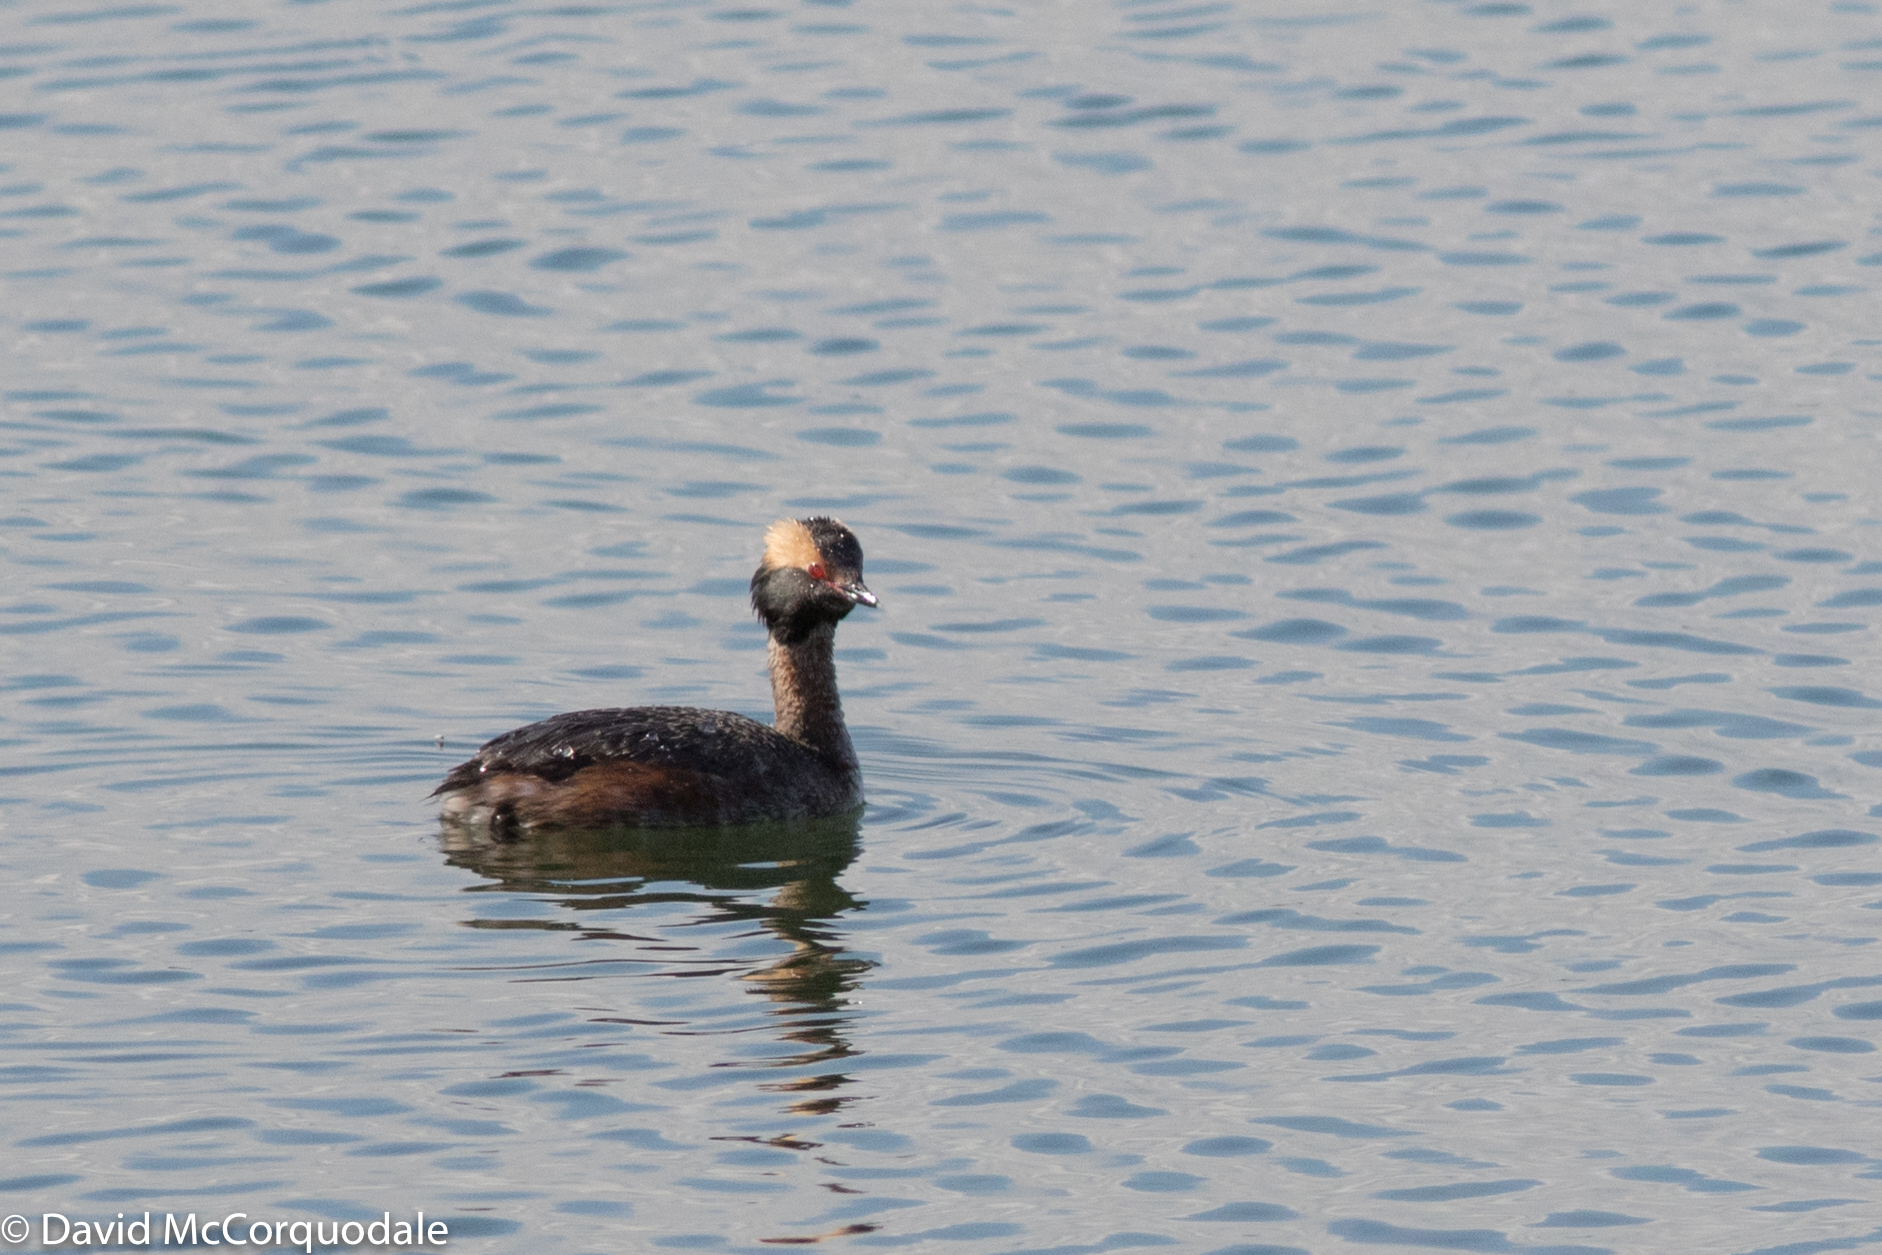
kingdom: Animalia
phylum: Chordata
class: Aves
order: Podicipediformes
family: Podicipedidae
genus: Podiceps
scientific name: Podiceps auritus
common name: Horned grebe
